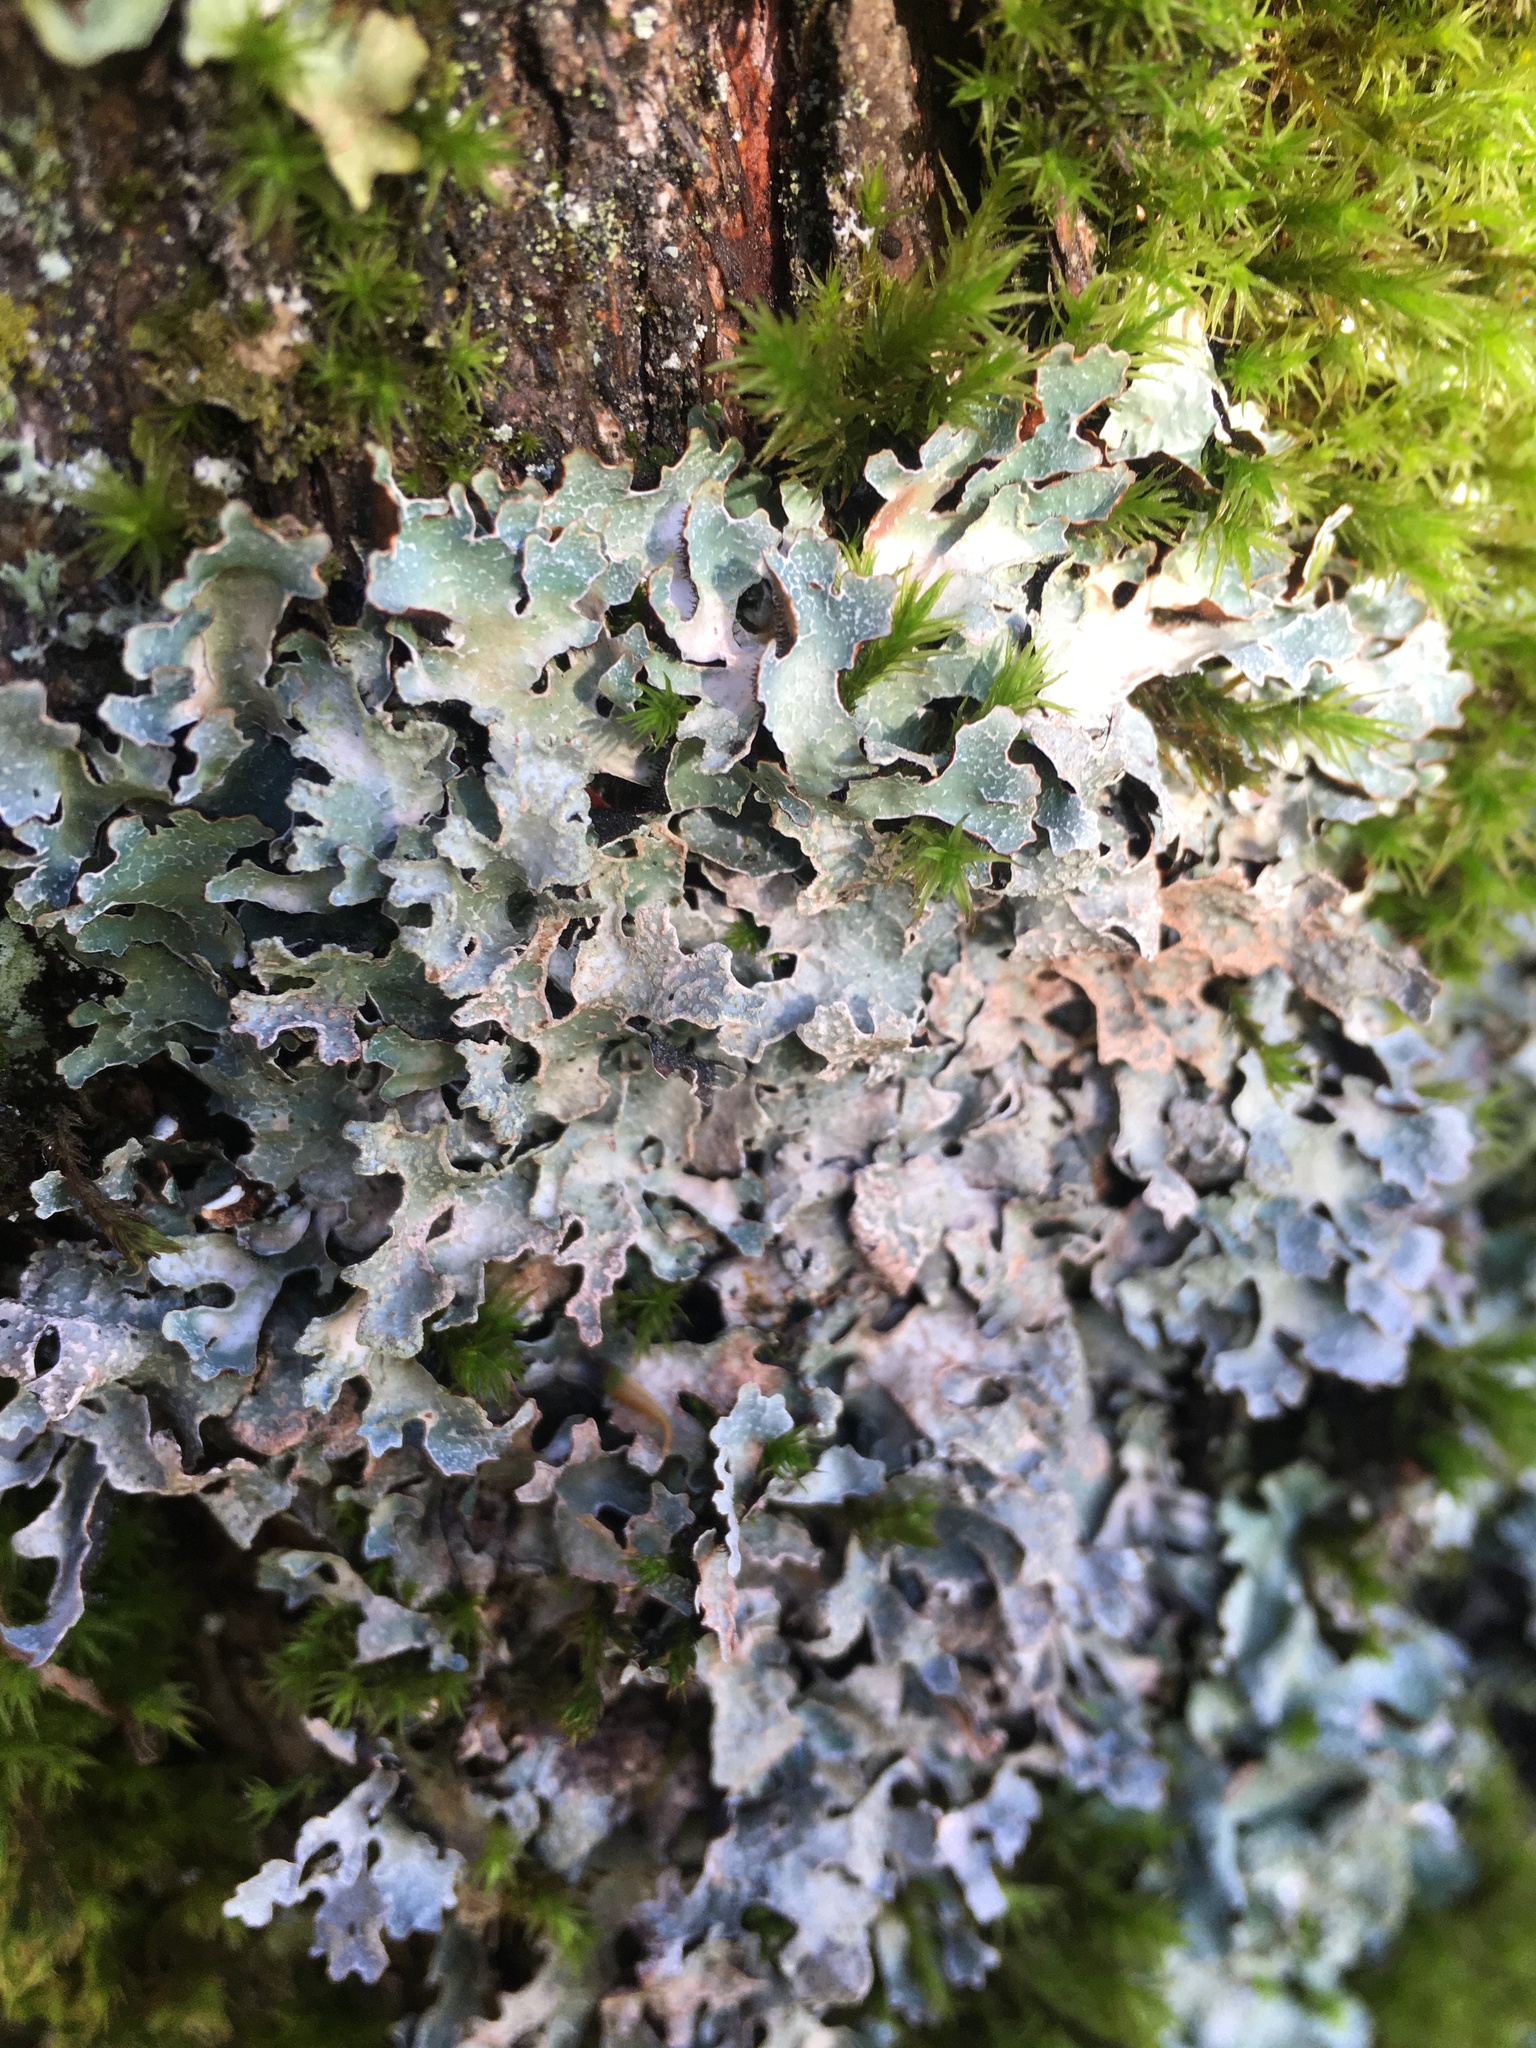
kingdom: Fungi
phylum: Ascomycota
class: Lecanoromycetes
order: Lecanorales
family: Parmeliaceae
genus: Parmelia
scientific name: Parmelia sulcata
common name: Netted shield lichen
